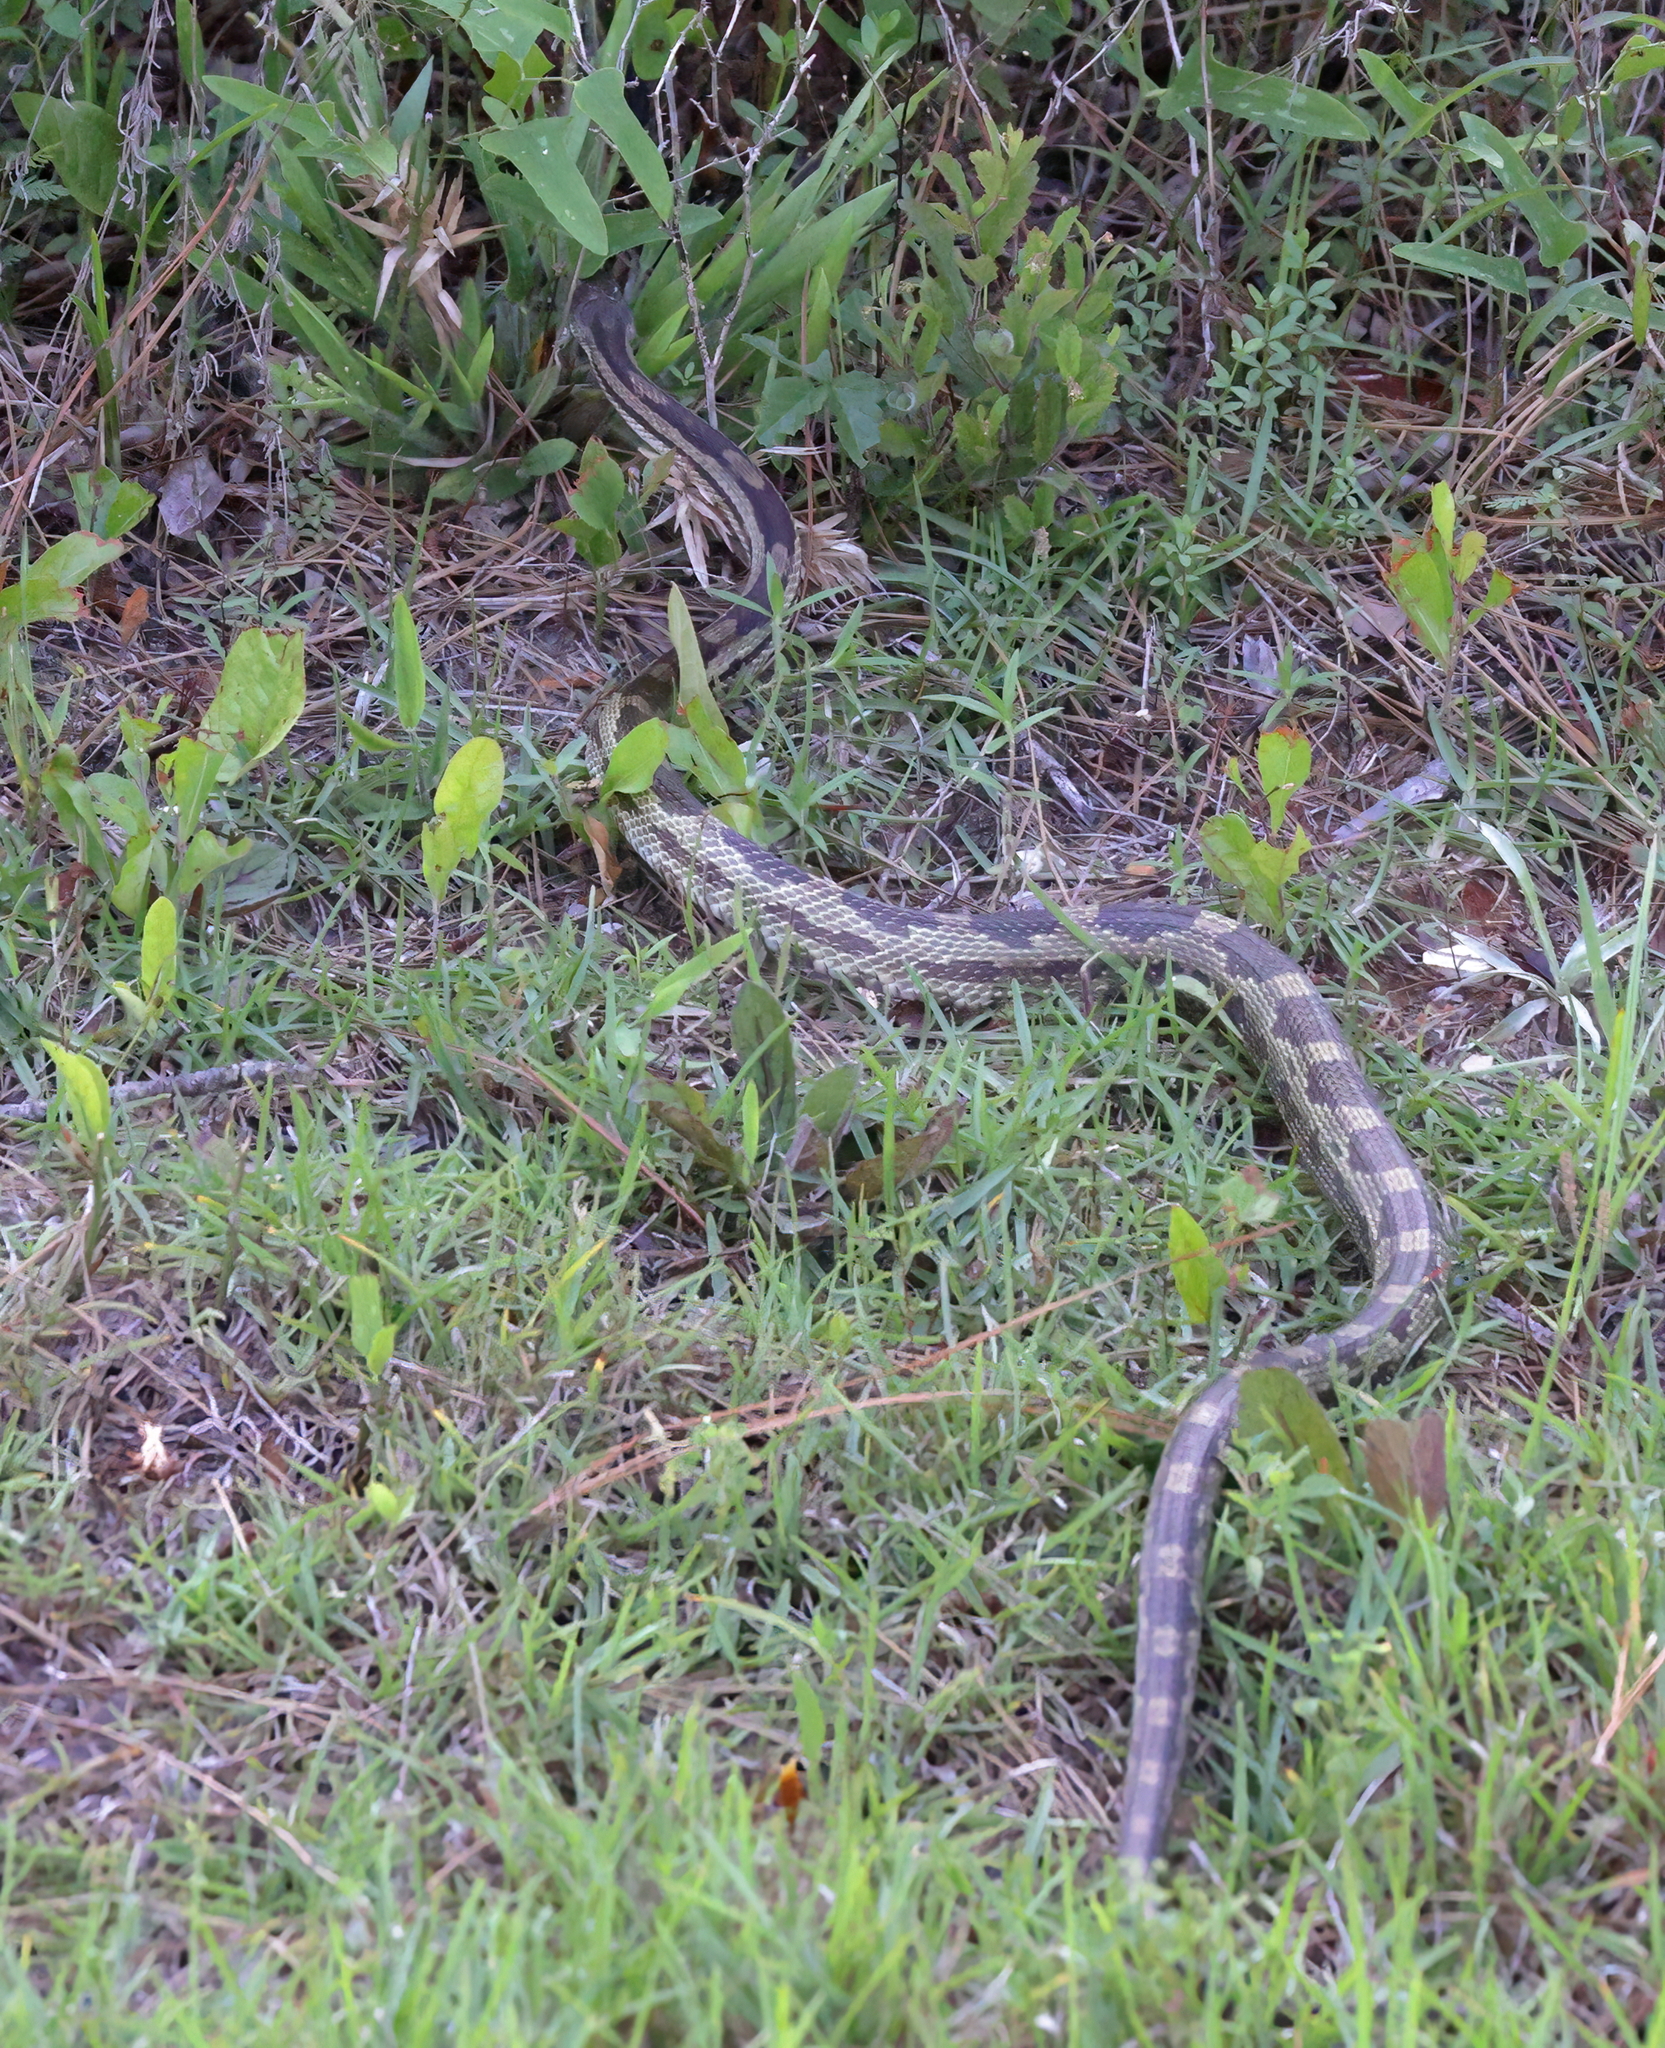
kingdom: Animalia
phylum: Chordata
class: Squamata
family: Colubridae
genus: Pantherophis
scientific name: Pantherophis spiloides
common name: Gray rat snake
